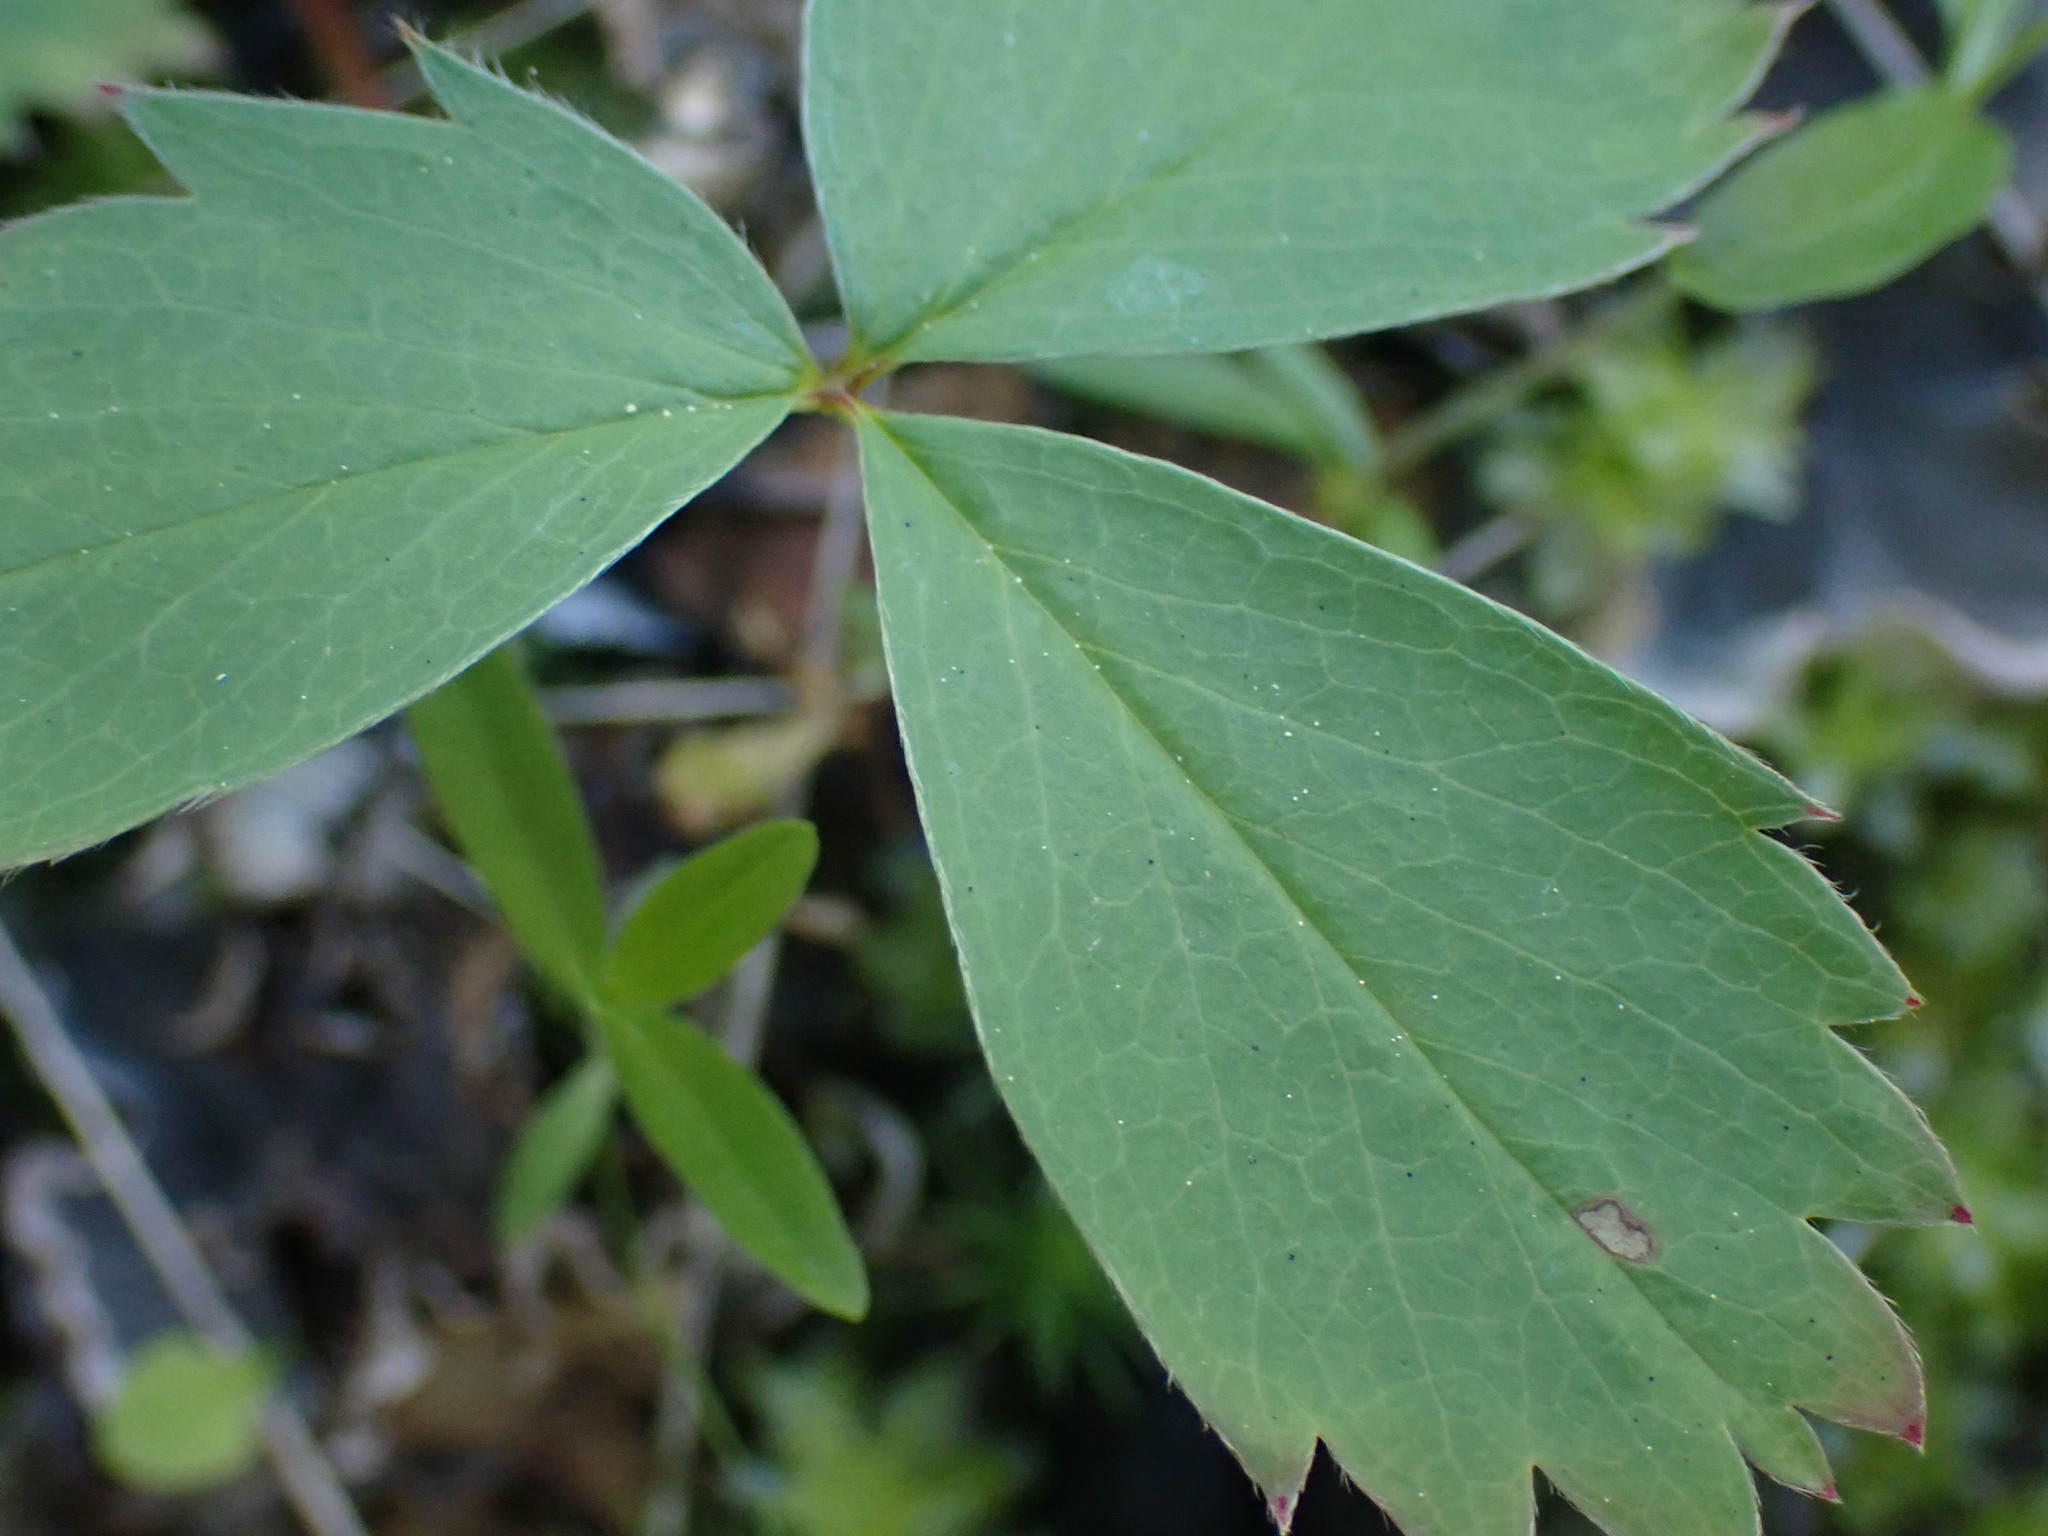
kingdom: Plantae
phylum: Tracheophyta
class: Magnoliopsida
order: Rosales
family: Rosaceae
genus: Fragaria
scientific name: Fragaria virginiana
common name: Thickleaved wild strawberry
